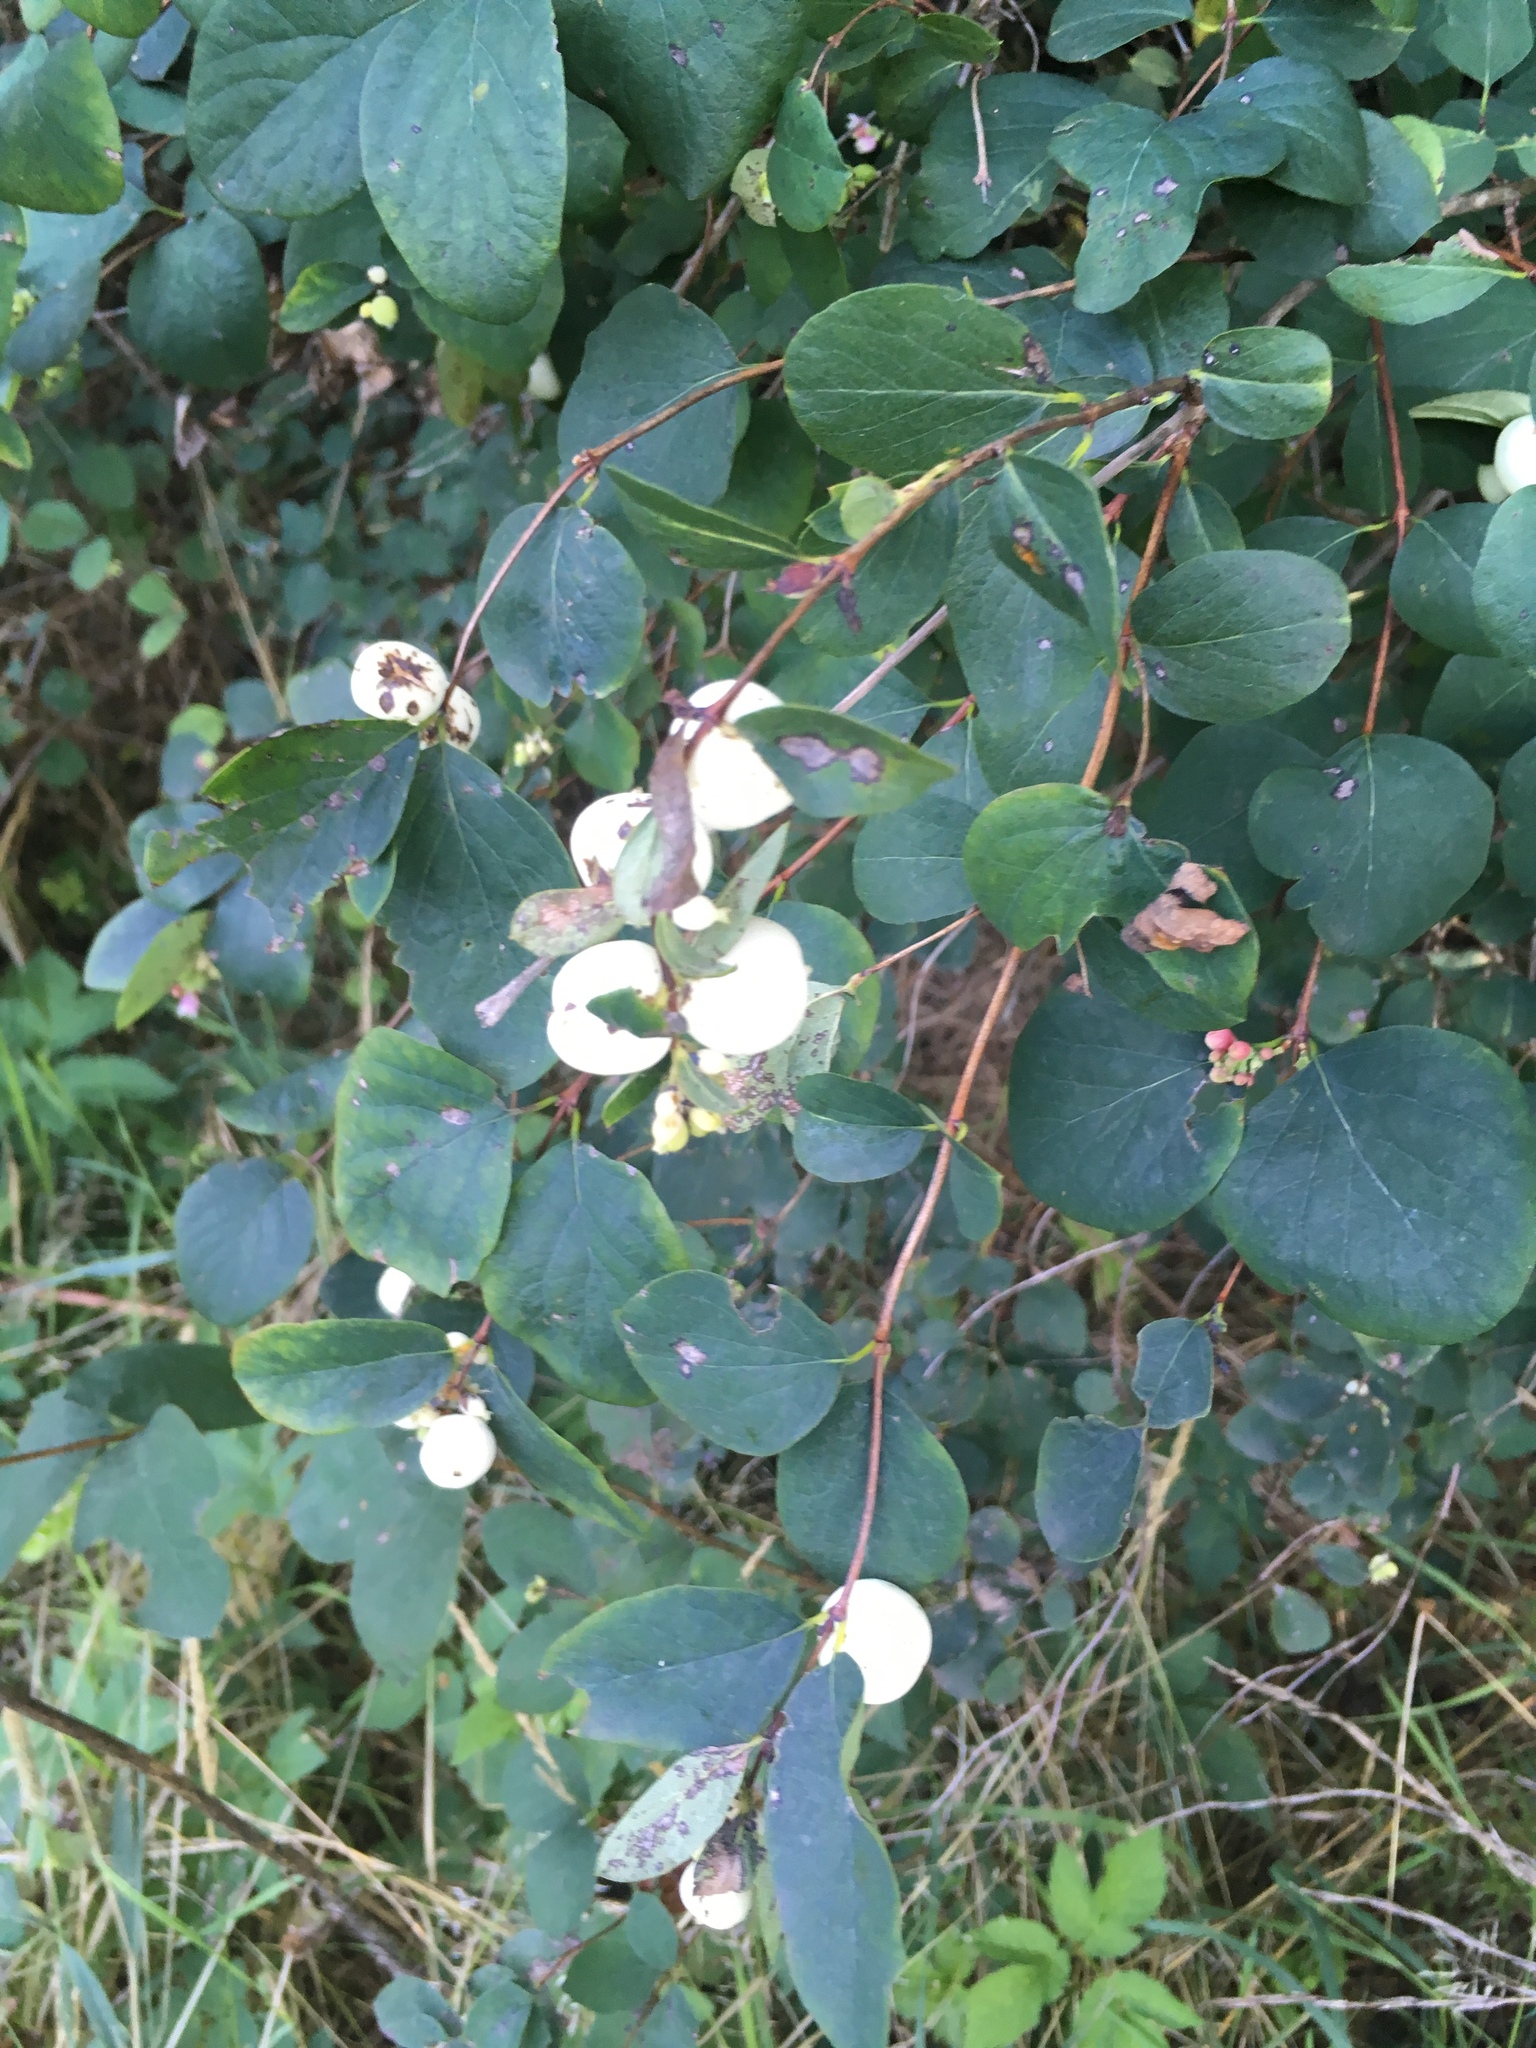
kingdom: Plantae
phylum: Tracheophyta
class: Magnoliopsida
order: Dipsacales
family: Caprifoliaceae
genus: Symphoricarpos
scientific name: Symphoricarpos albus
